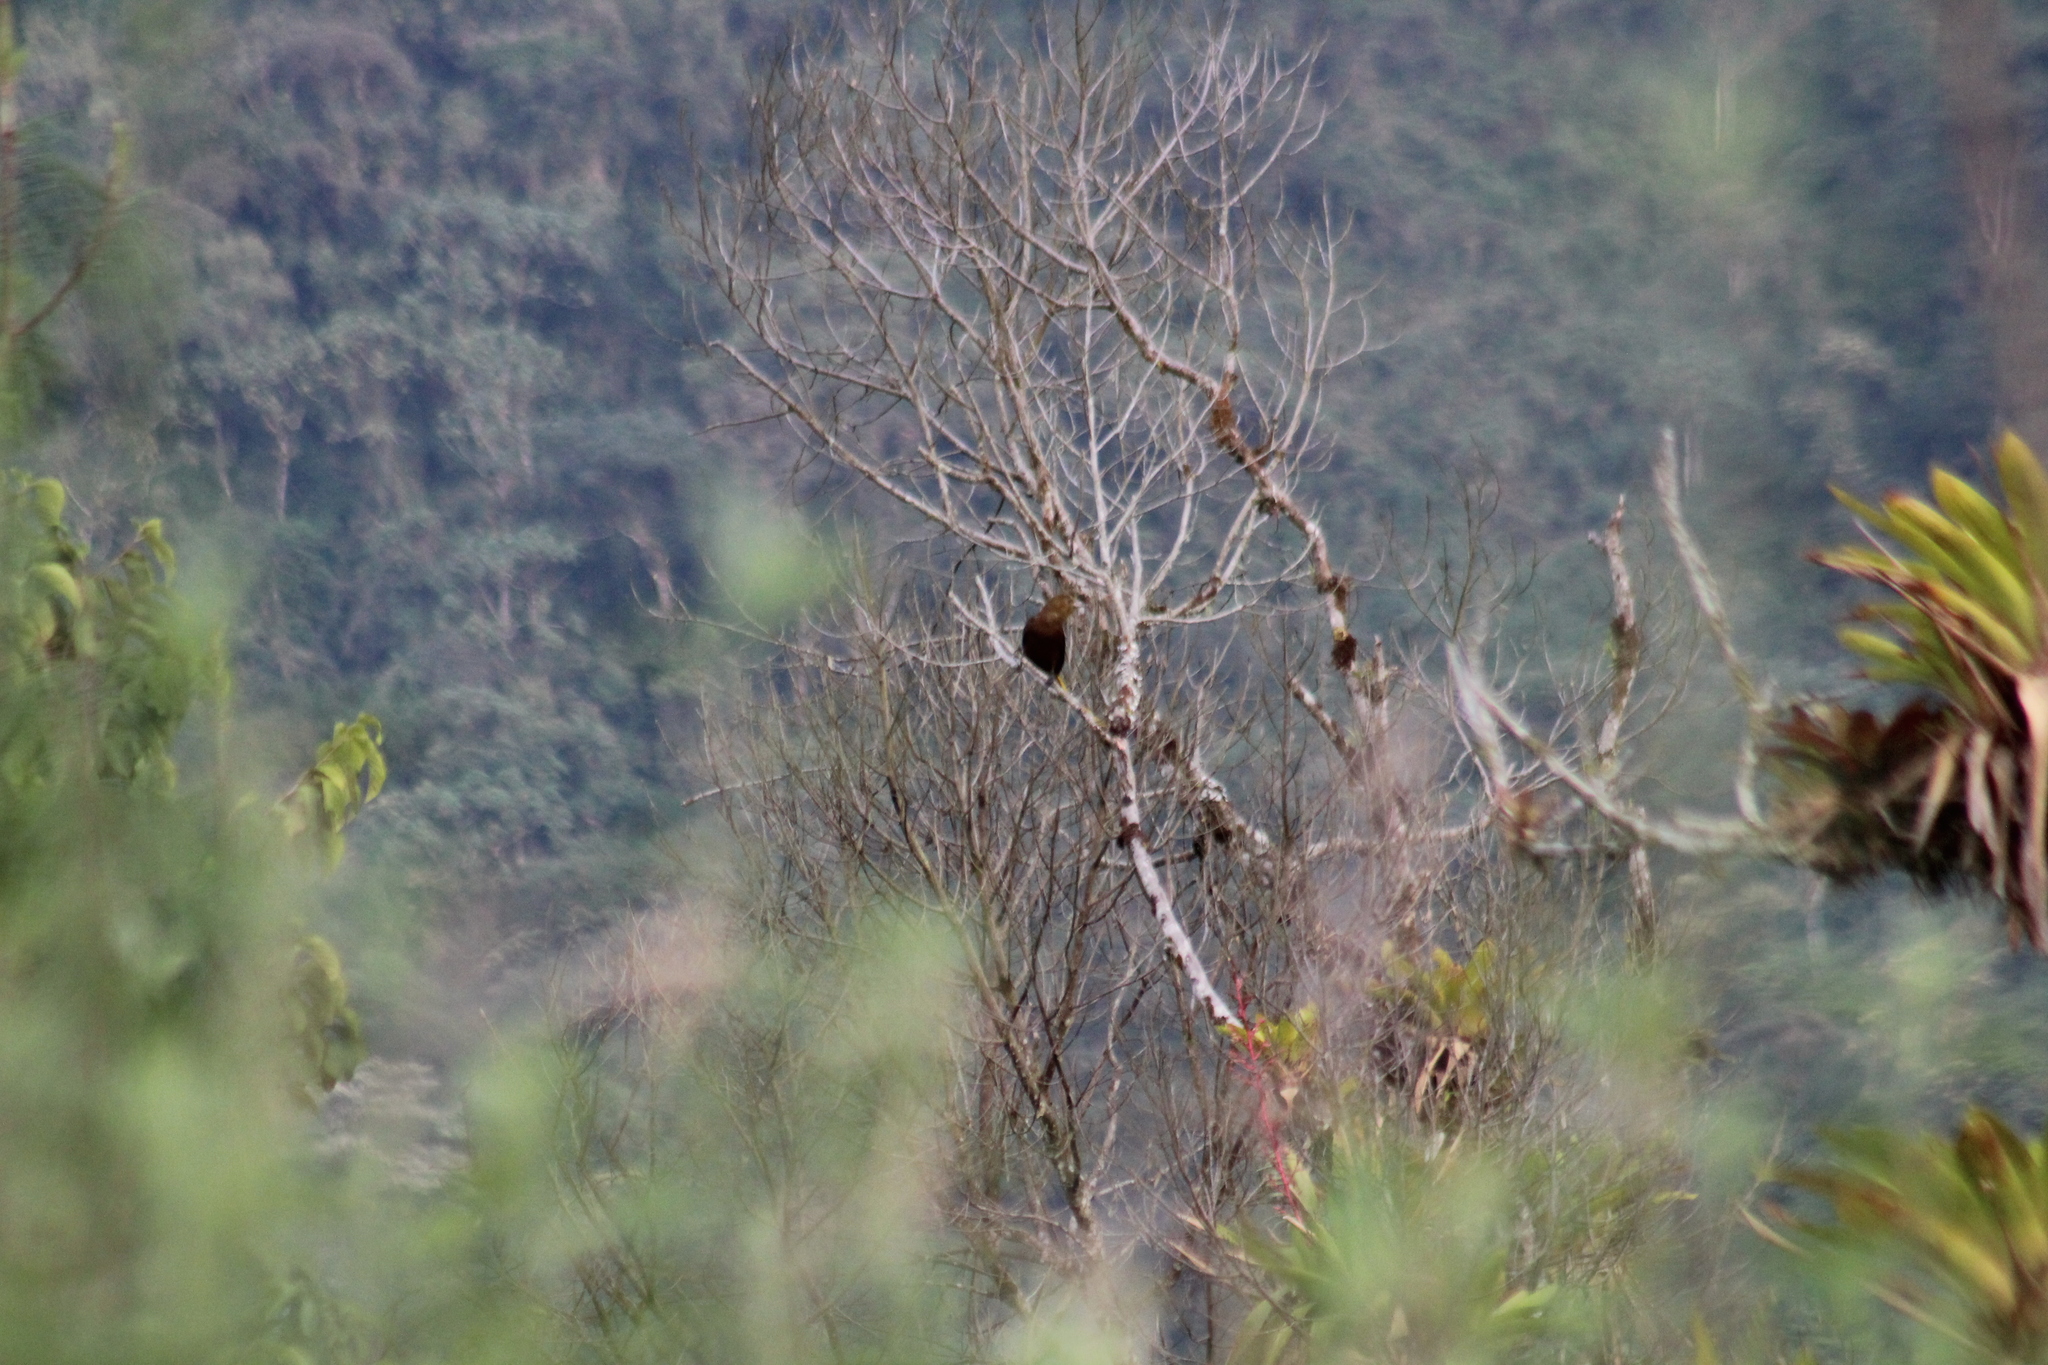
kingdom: Animalia
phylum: Chordata
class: Aves
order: Passeriformes
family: Icteridae
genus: Psarocolius
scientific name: Psarocolius angustifrons
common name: Russet-backed oropendola
